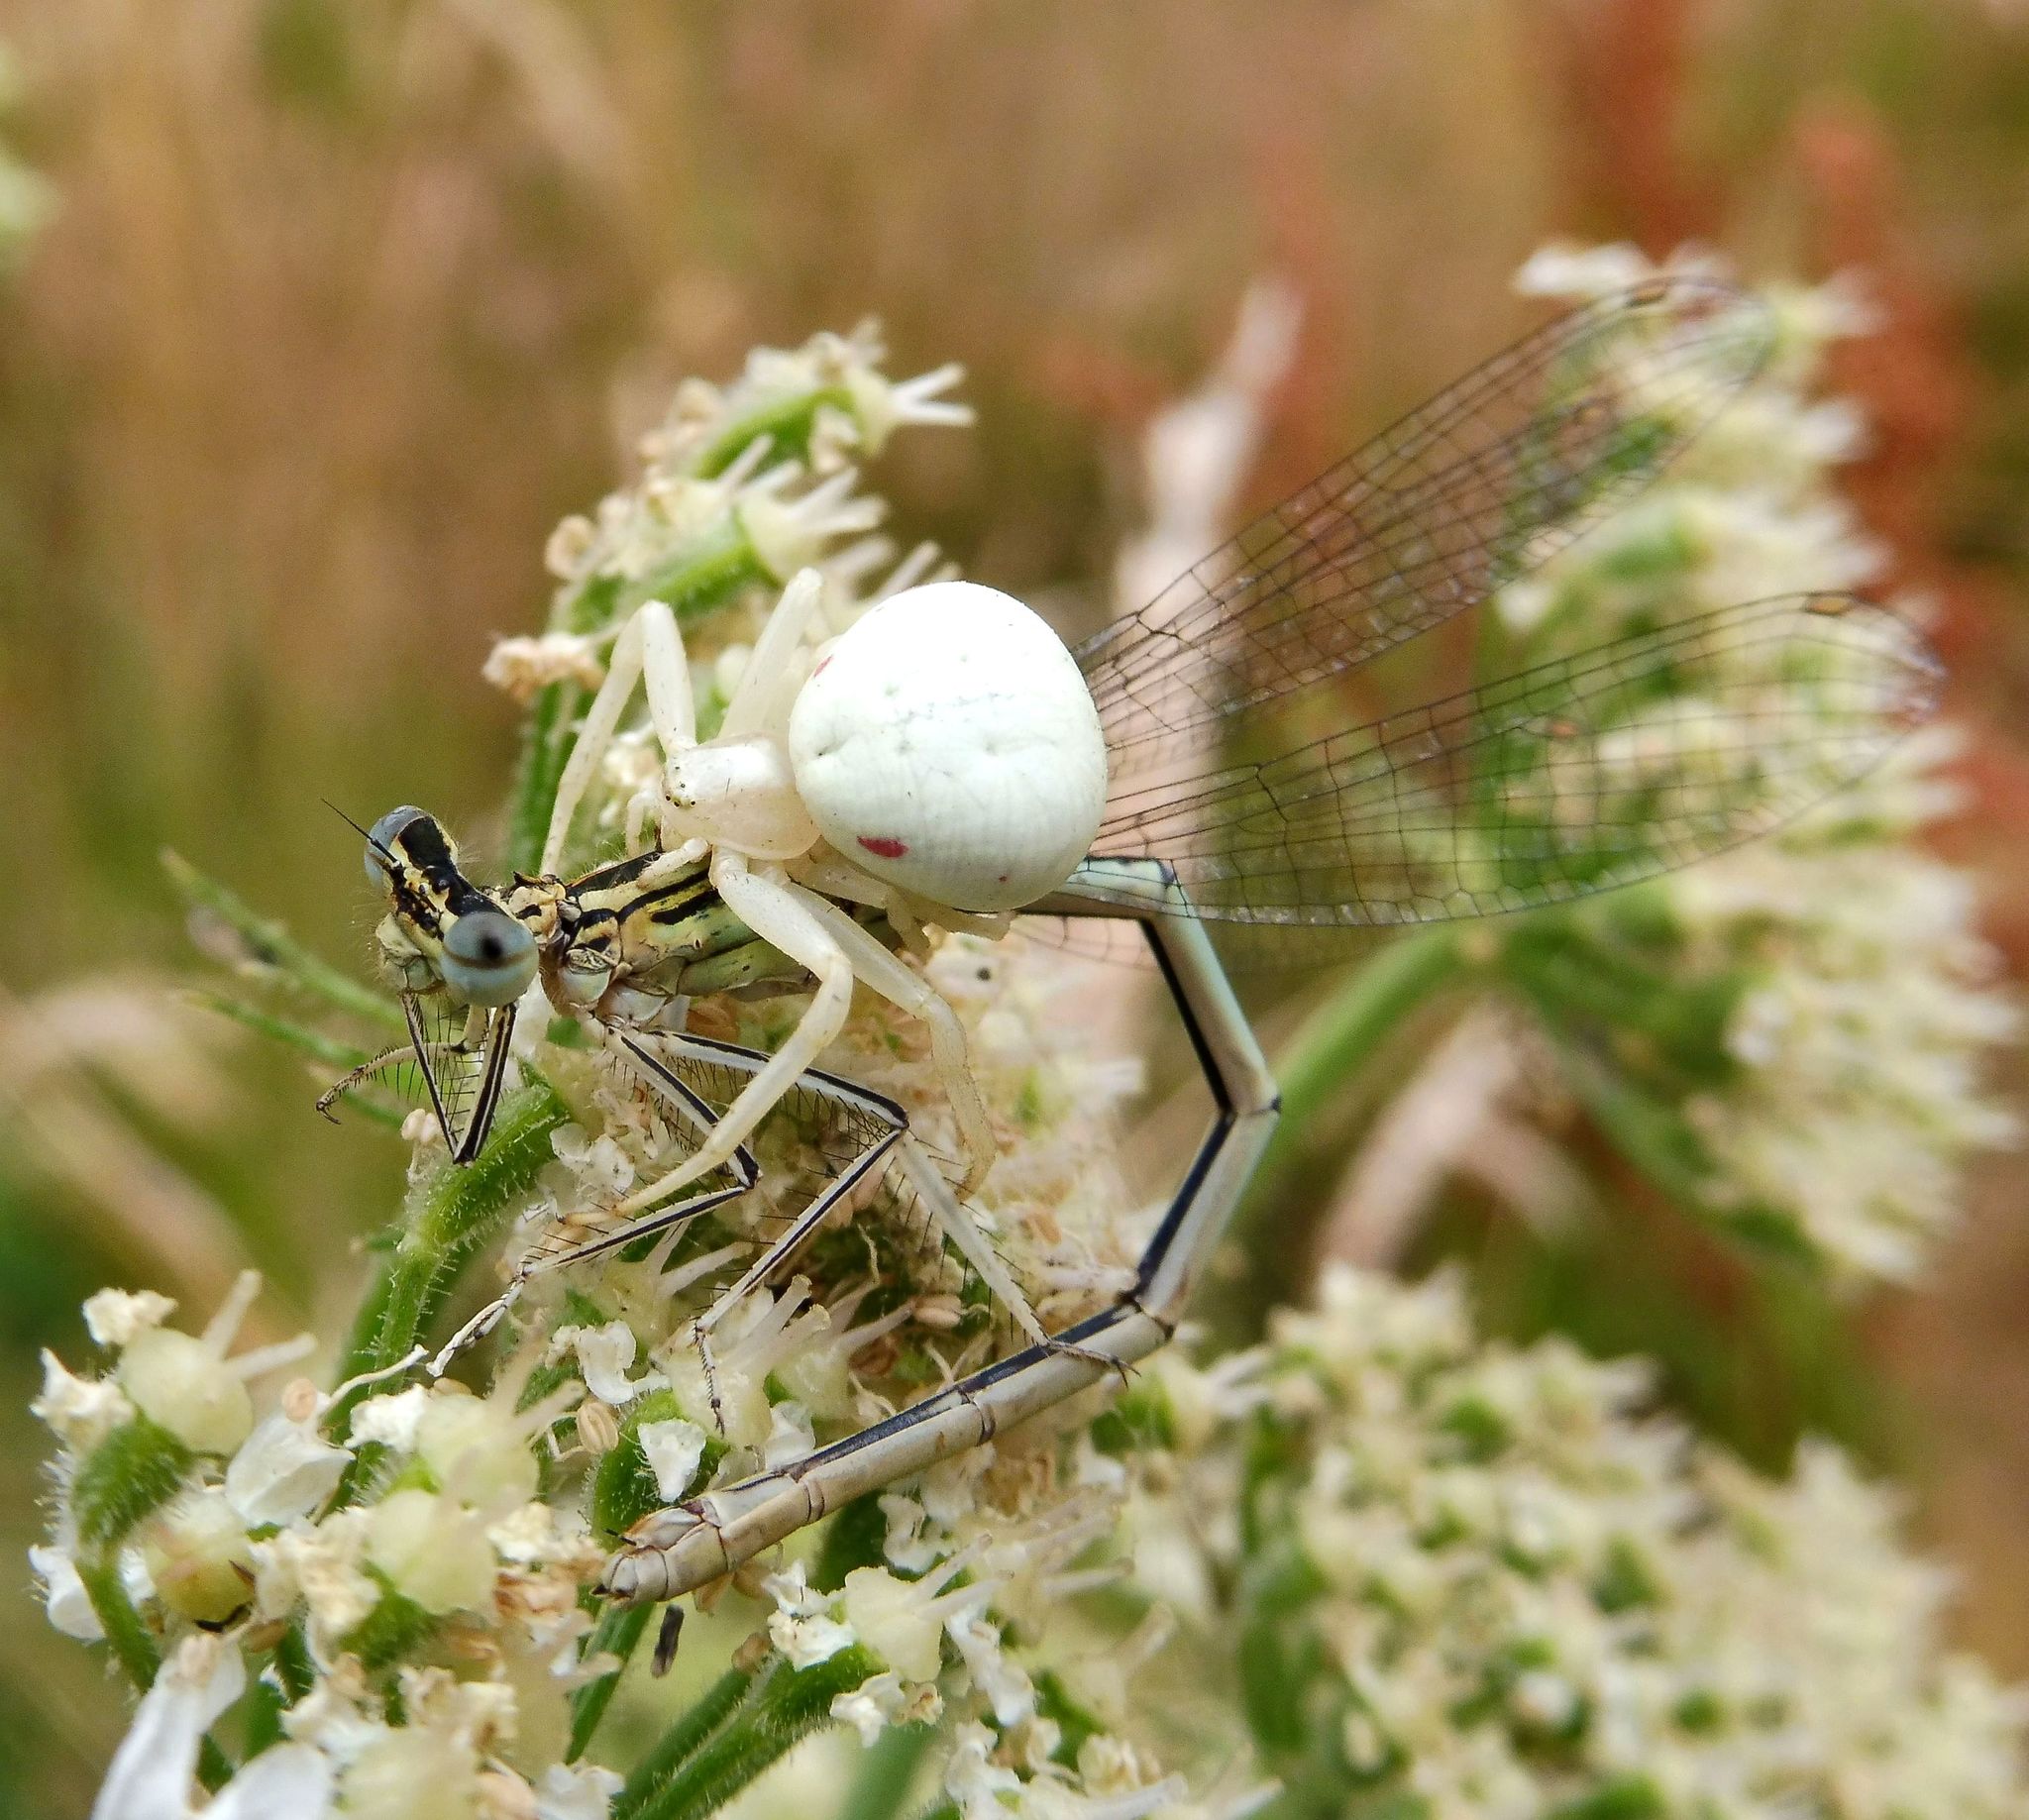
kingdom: Animalia
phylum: Arthropoda
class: Arachnida
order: Araneae
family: Thomisidae
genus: Misumena
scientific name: Misumena vatia
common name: Goldenrod crab spider
